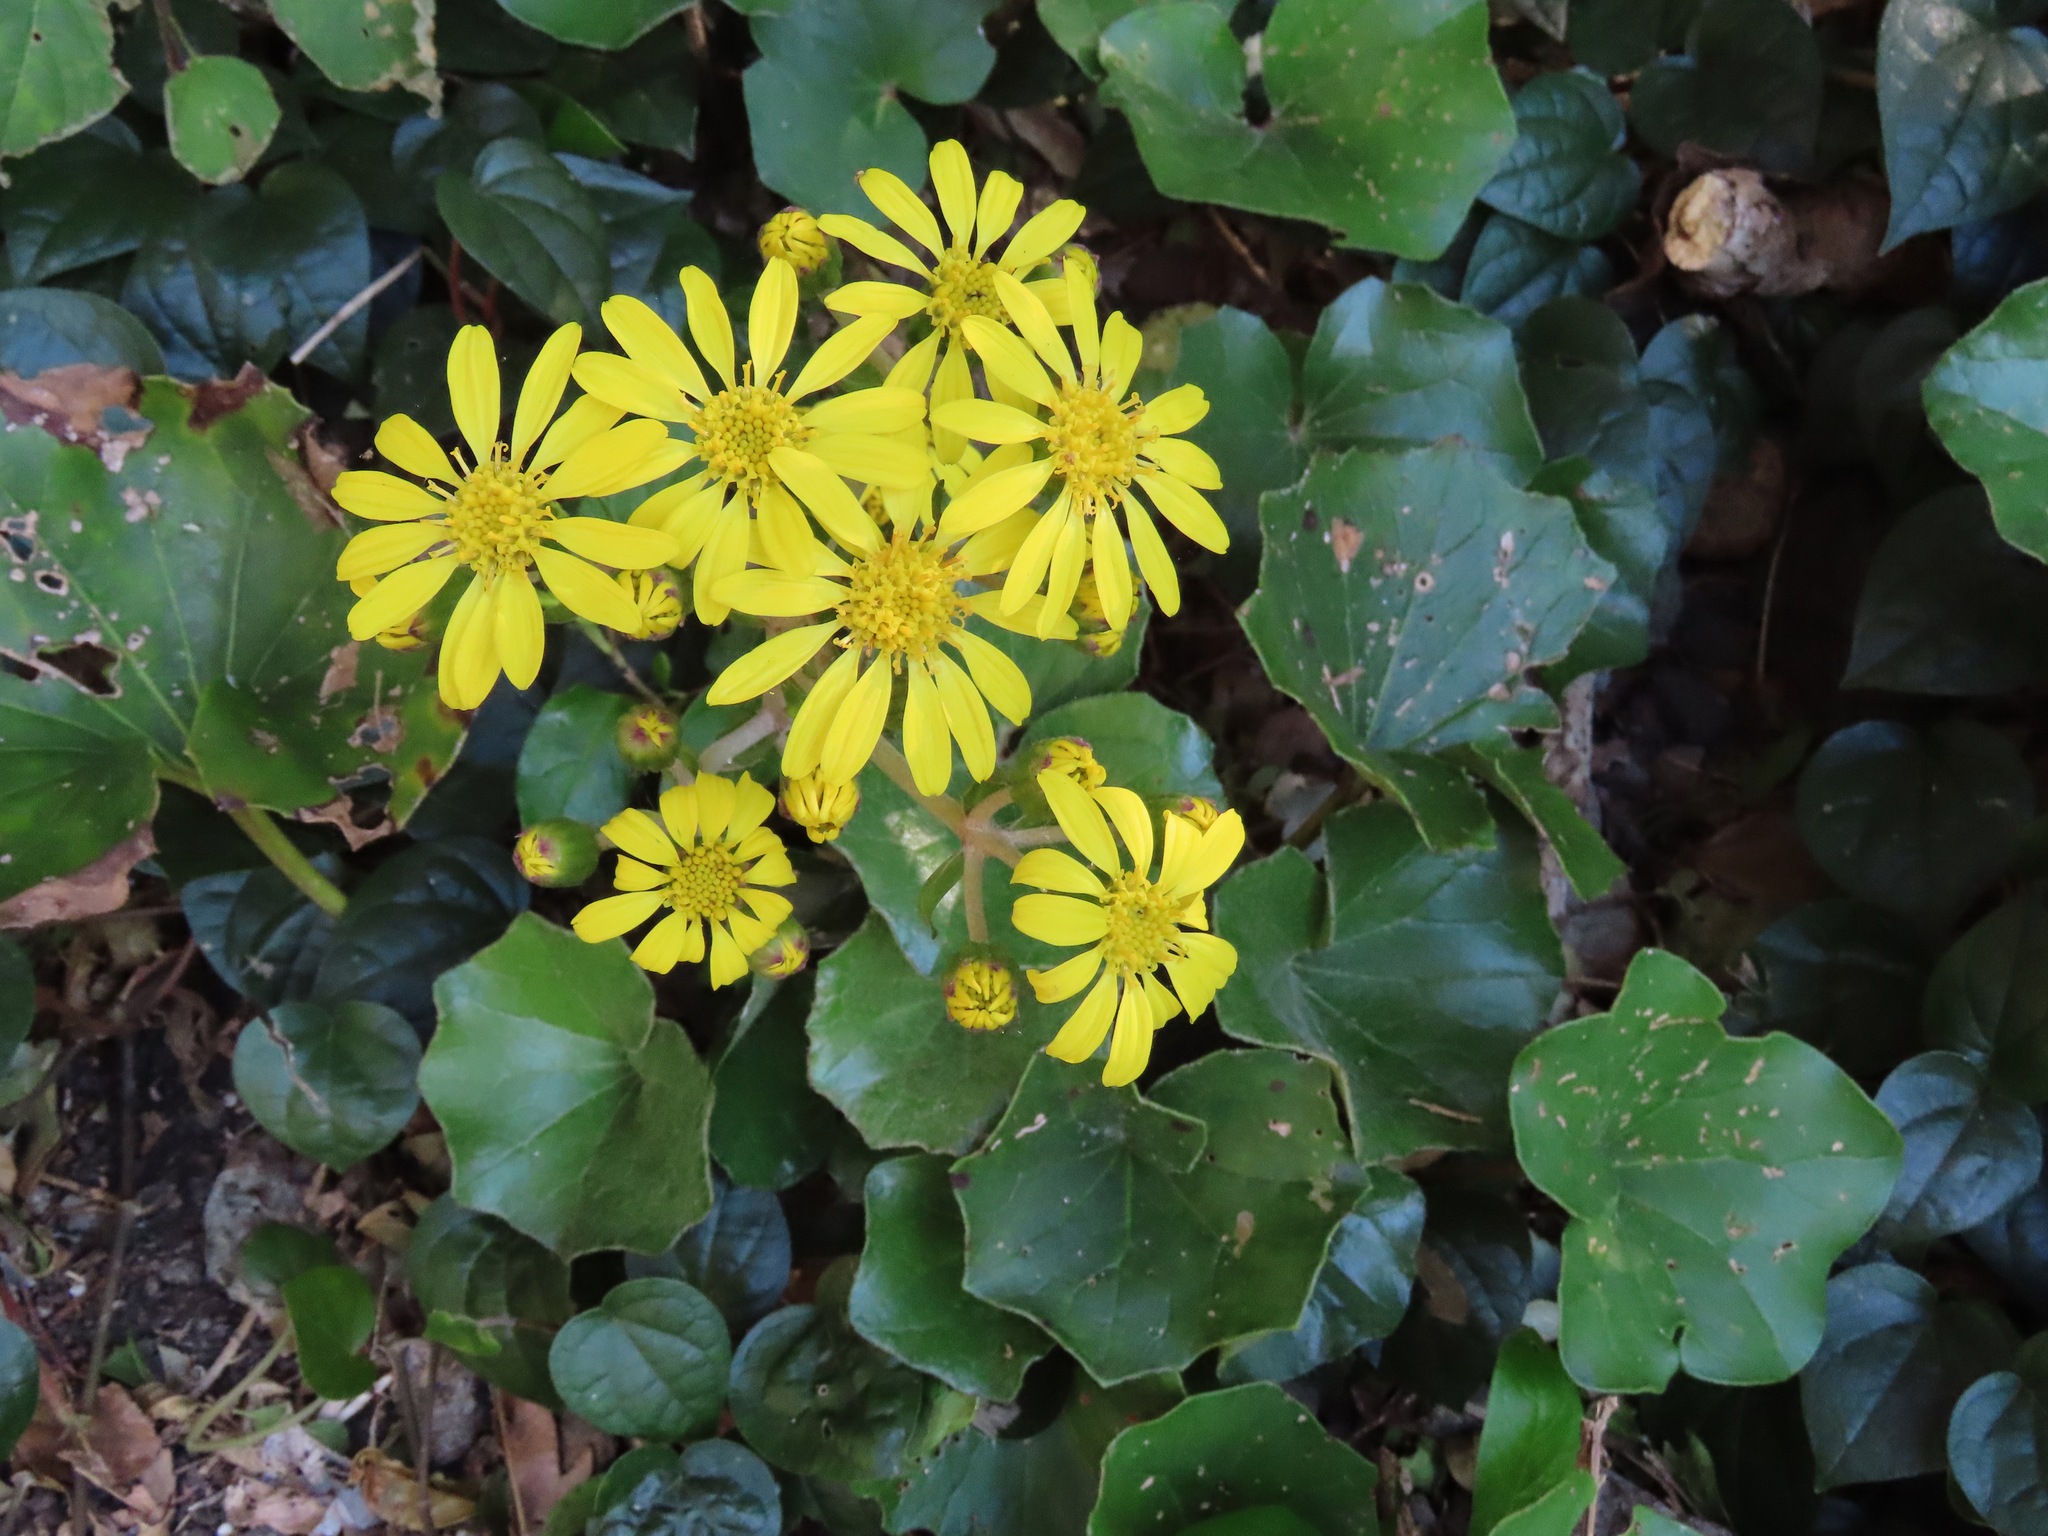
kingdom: Plantae
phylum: Tracheophyta
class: Magnoliopsida
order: Asterales
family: Asteraceae
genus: Farfugium
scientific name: Farfugium japonicum
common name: Leopardplant
